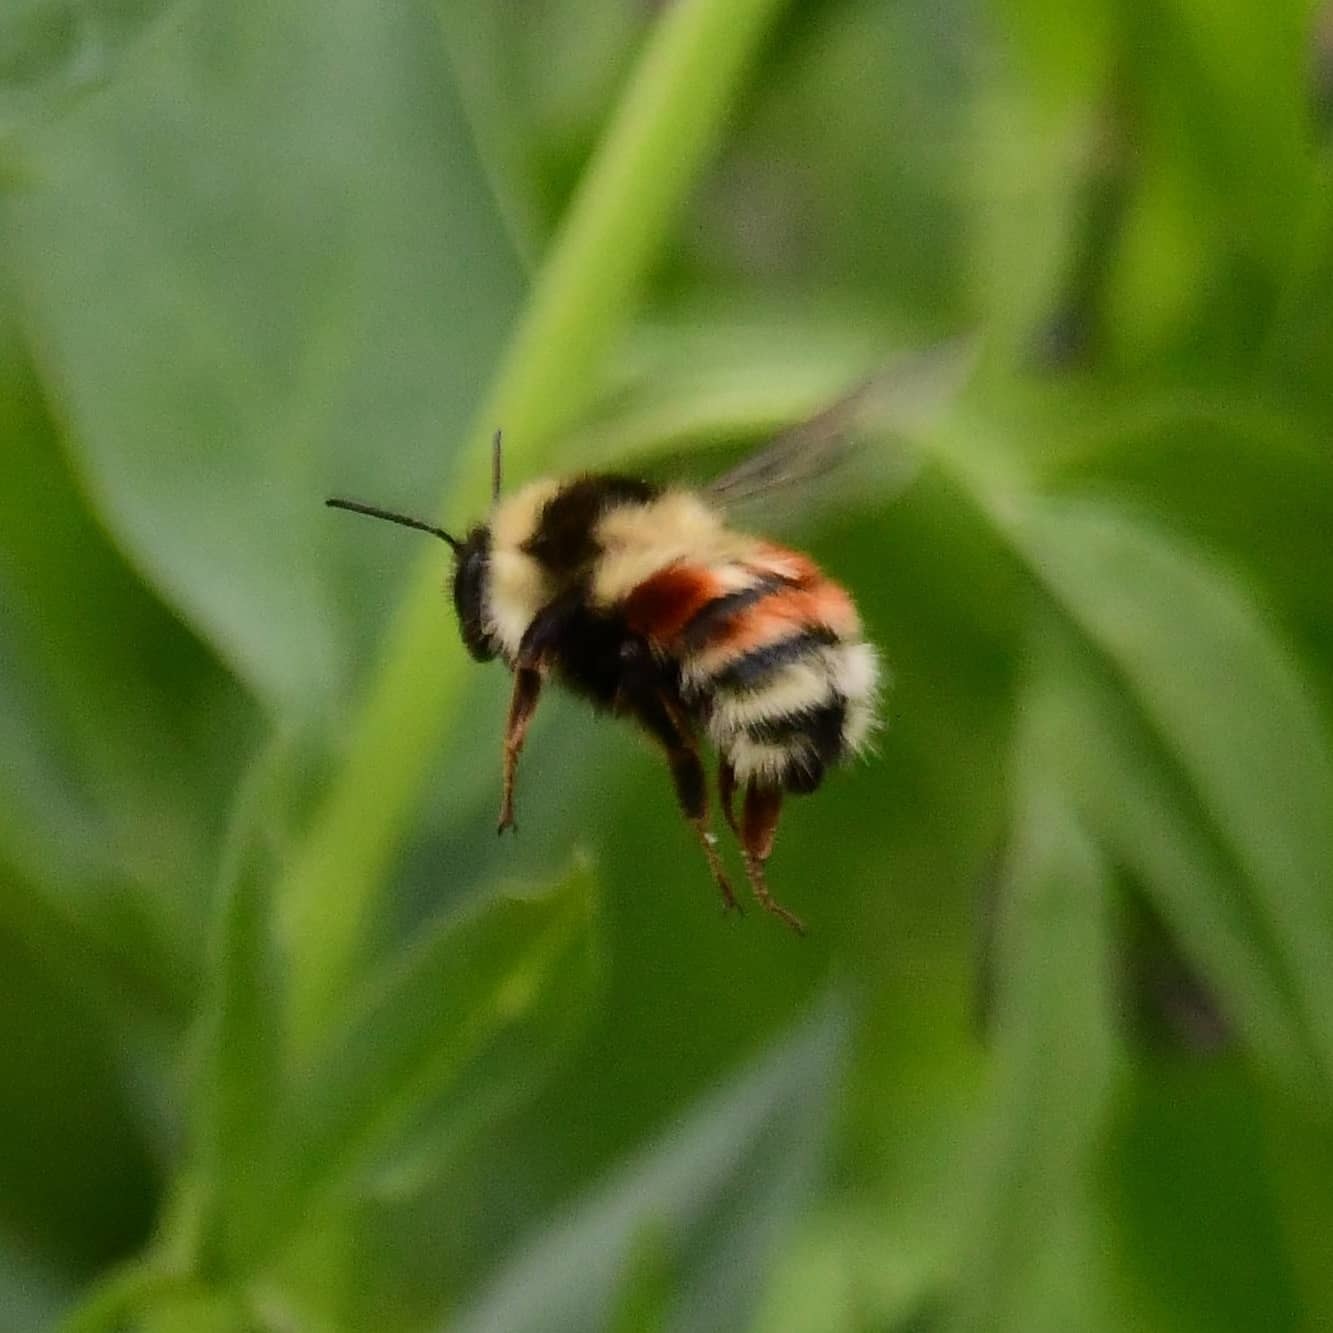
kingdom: Animalia
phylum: Arthropoda
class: Insecta
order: Hymenoptera
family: Apidae
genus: Bombus
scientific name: Bombus huntii
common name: Hunt bumble bee
